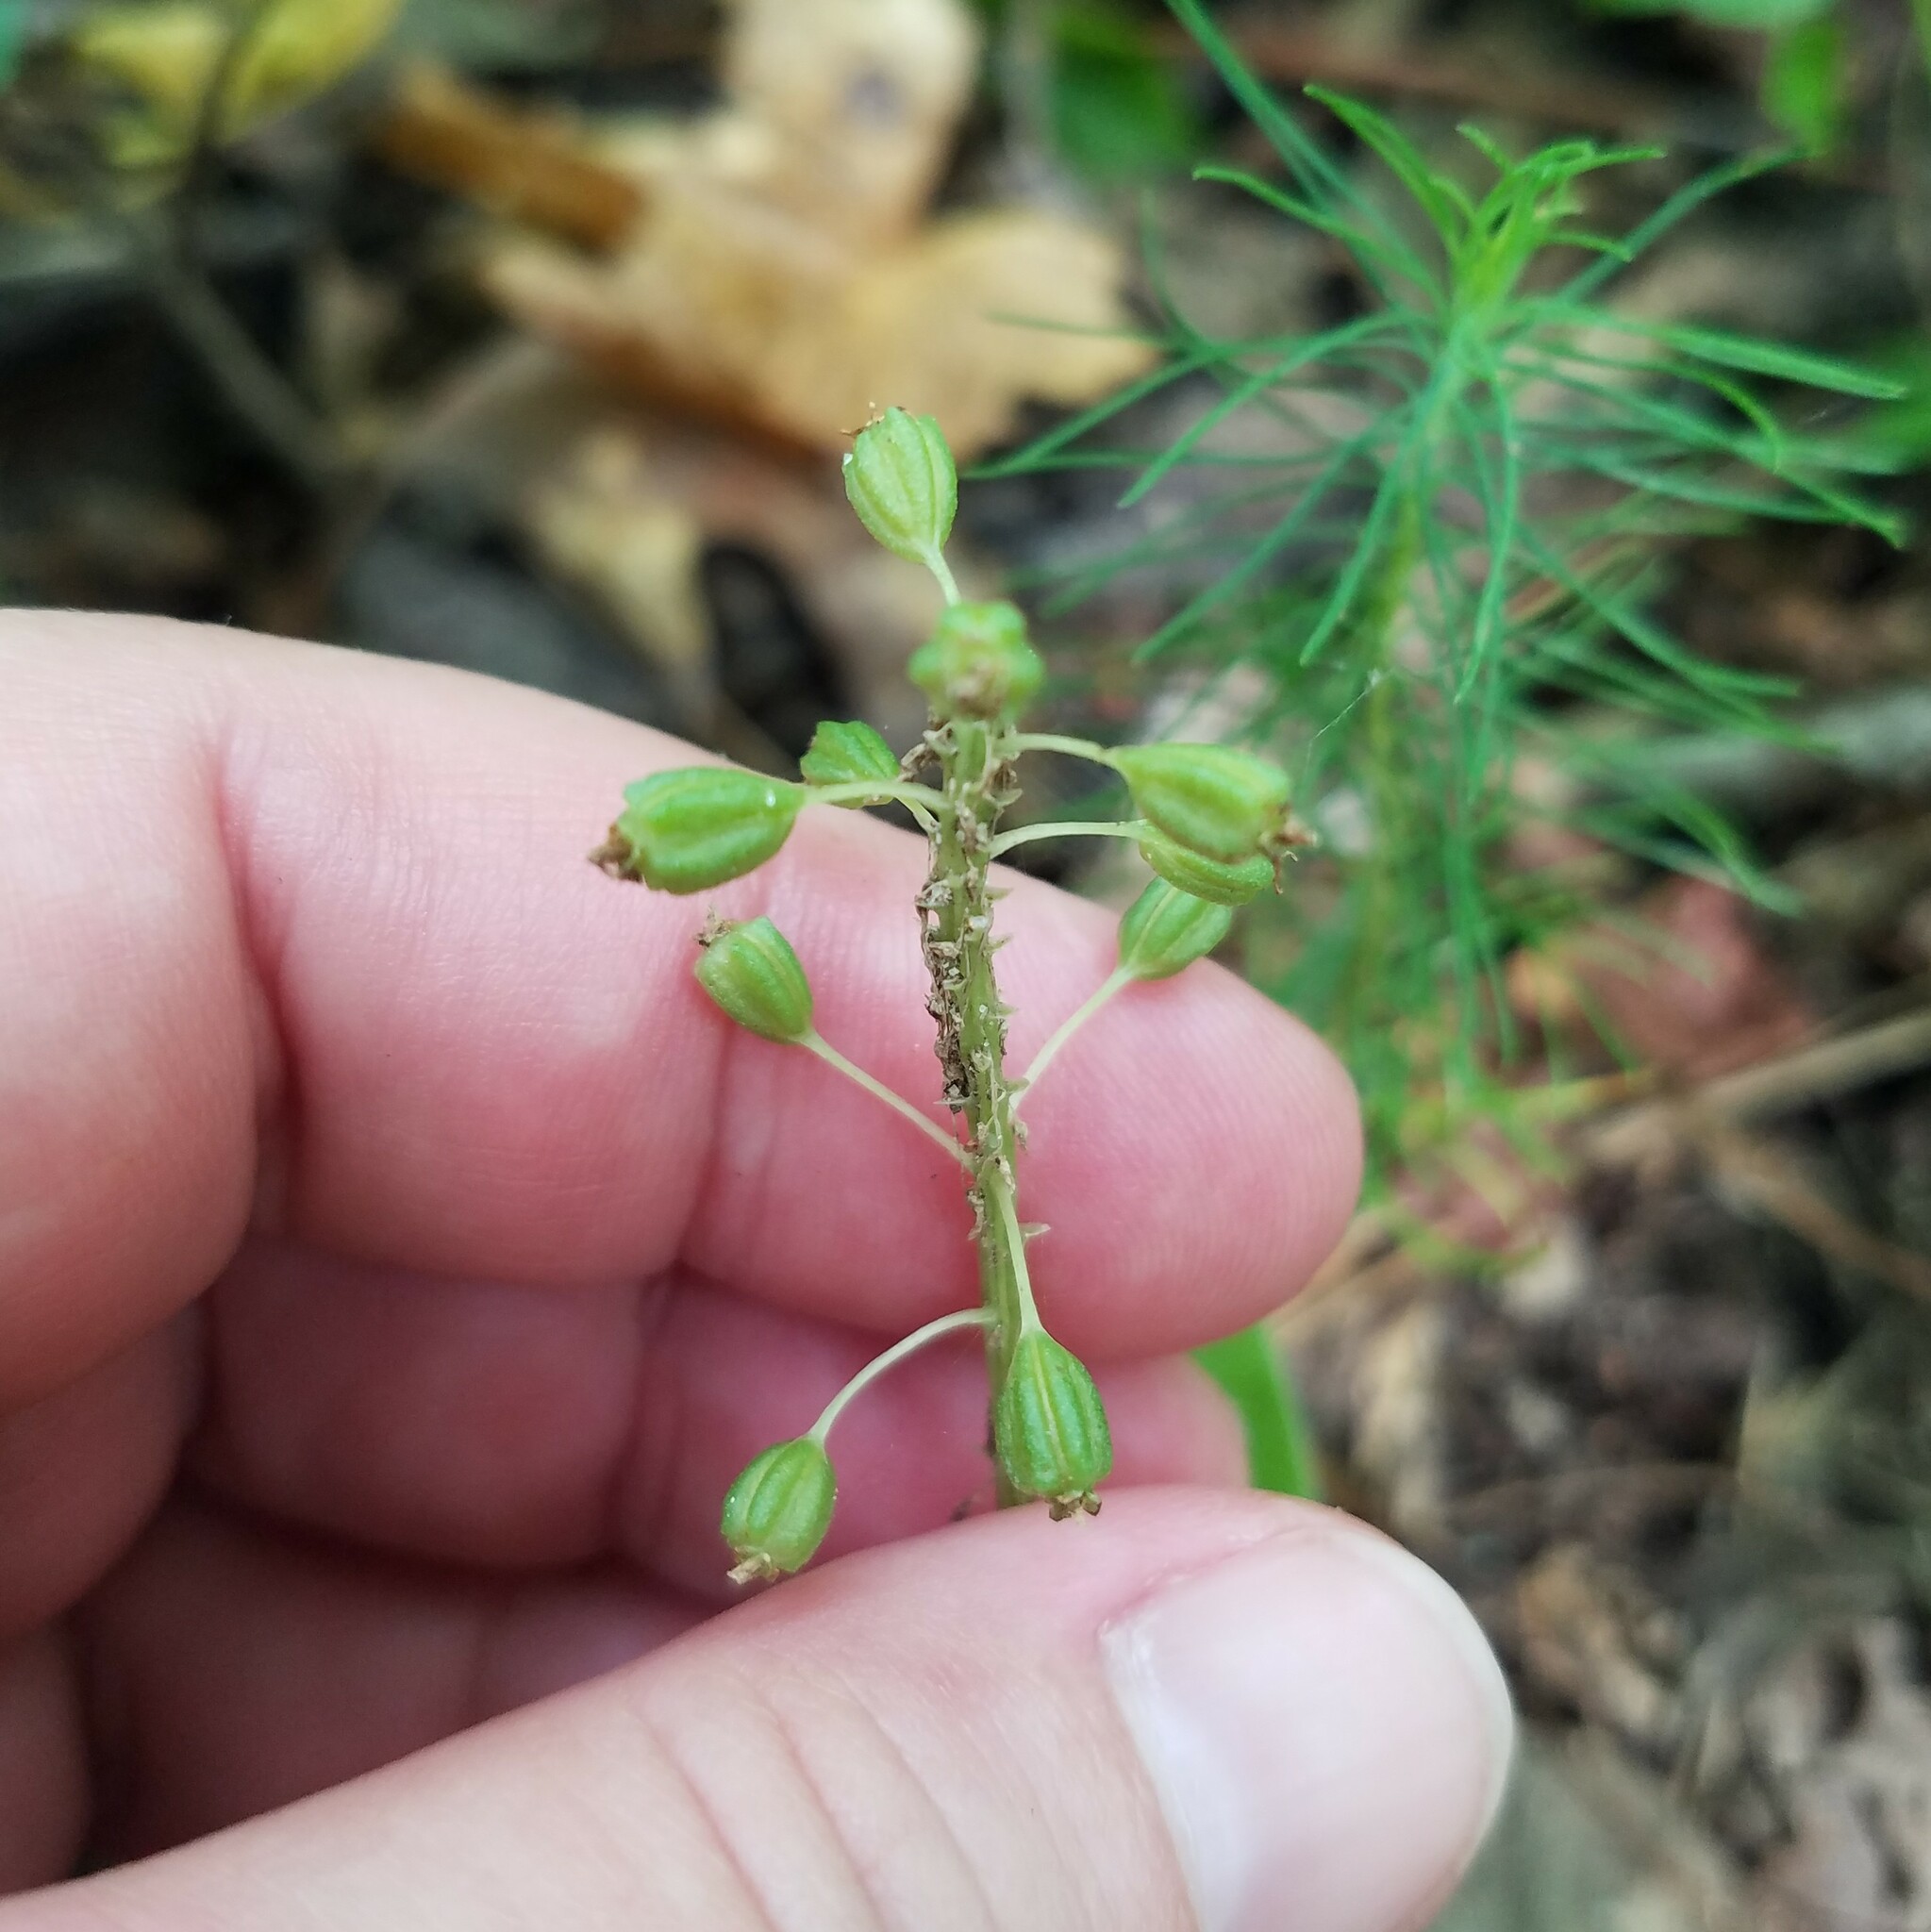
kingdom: Plantae
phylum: Tracheophyta
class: Liliopsida
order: Asparagales
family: Orchidaceae
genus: Malaxis
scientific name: Malaxis unifolia
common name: Green adder's-mouth
